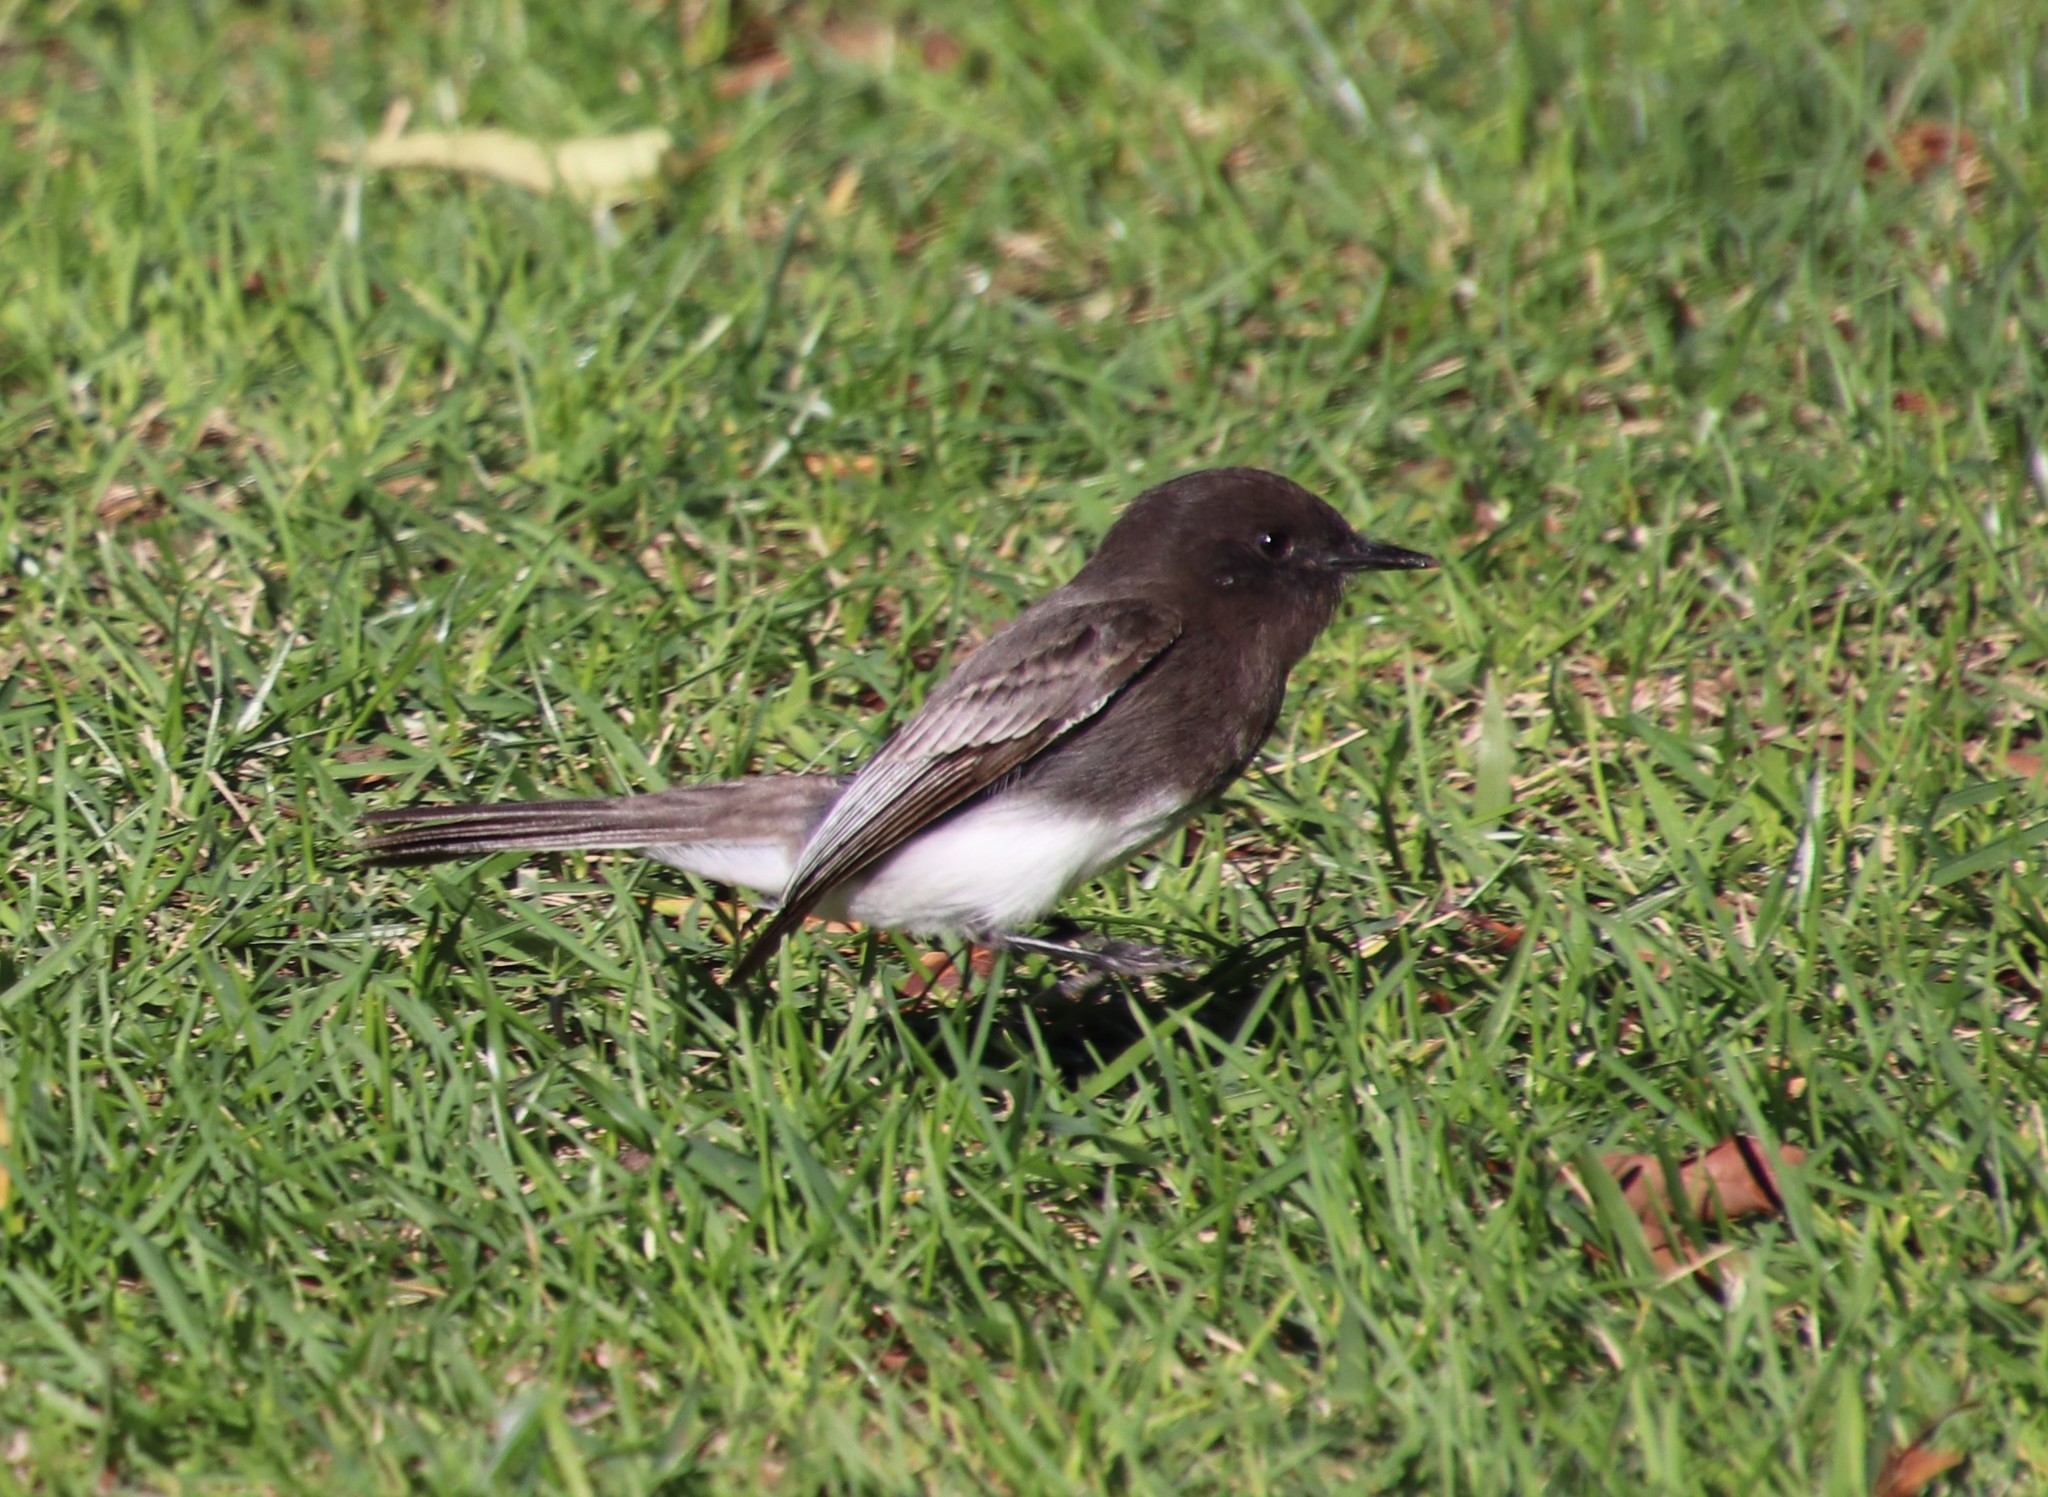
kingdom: Animalia
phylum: Chordata
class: Aves
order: Passeriformes
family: Tyrannidae
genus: Sayornis
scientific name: Sayornis nigricans
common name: Black phoebe
